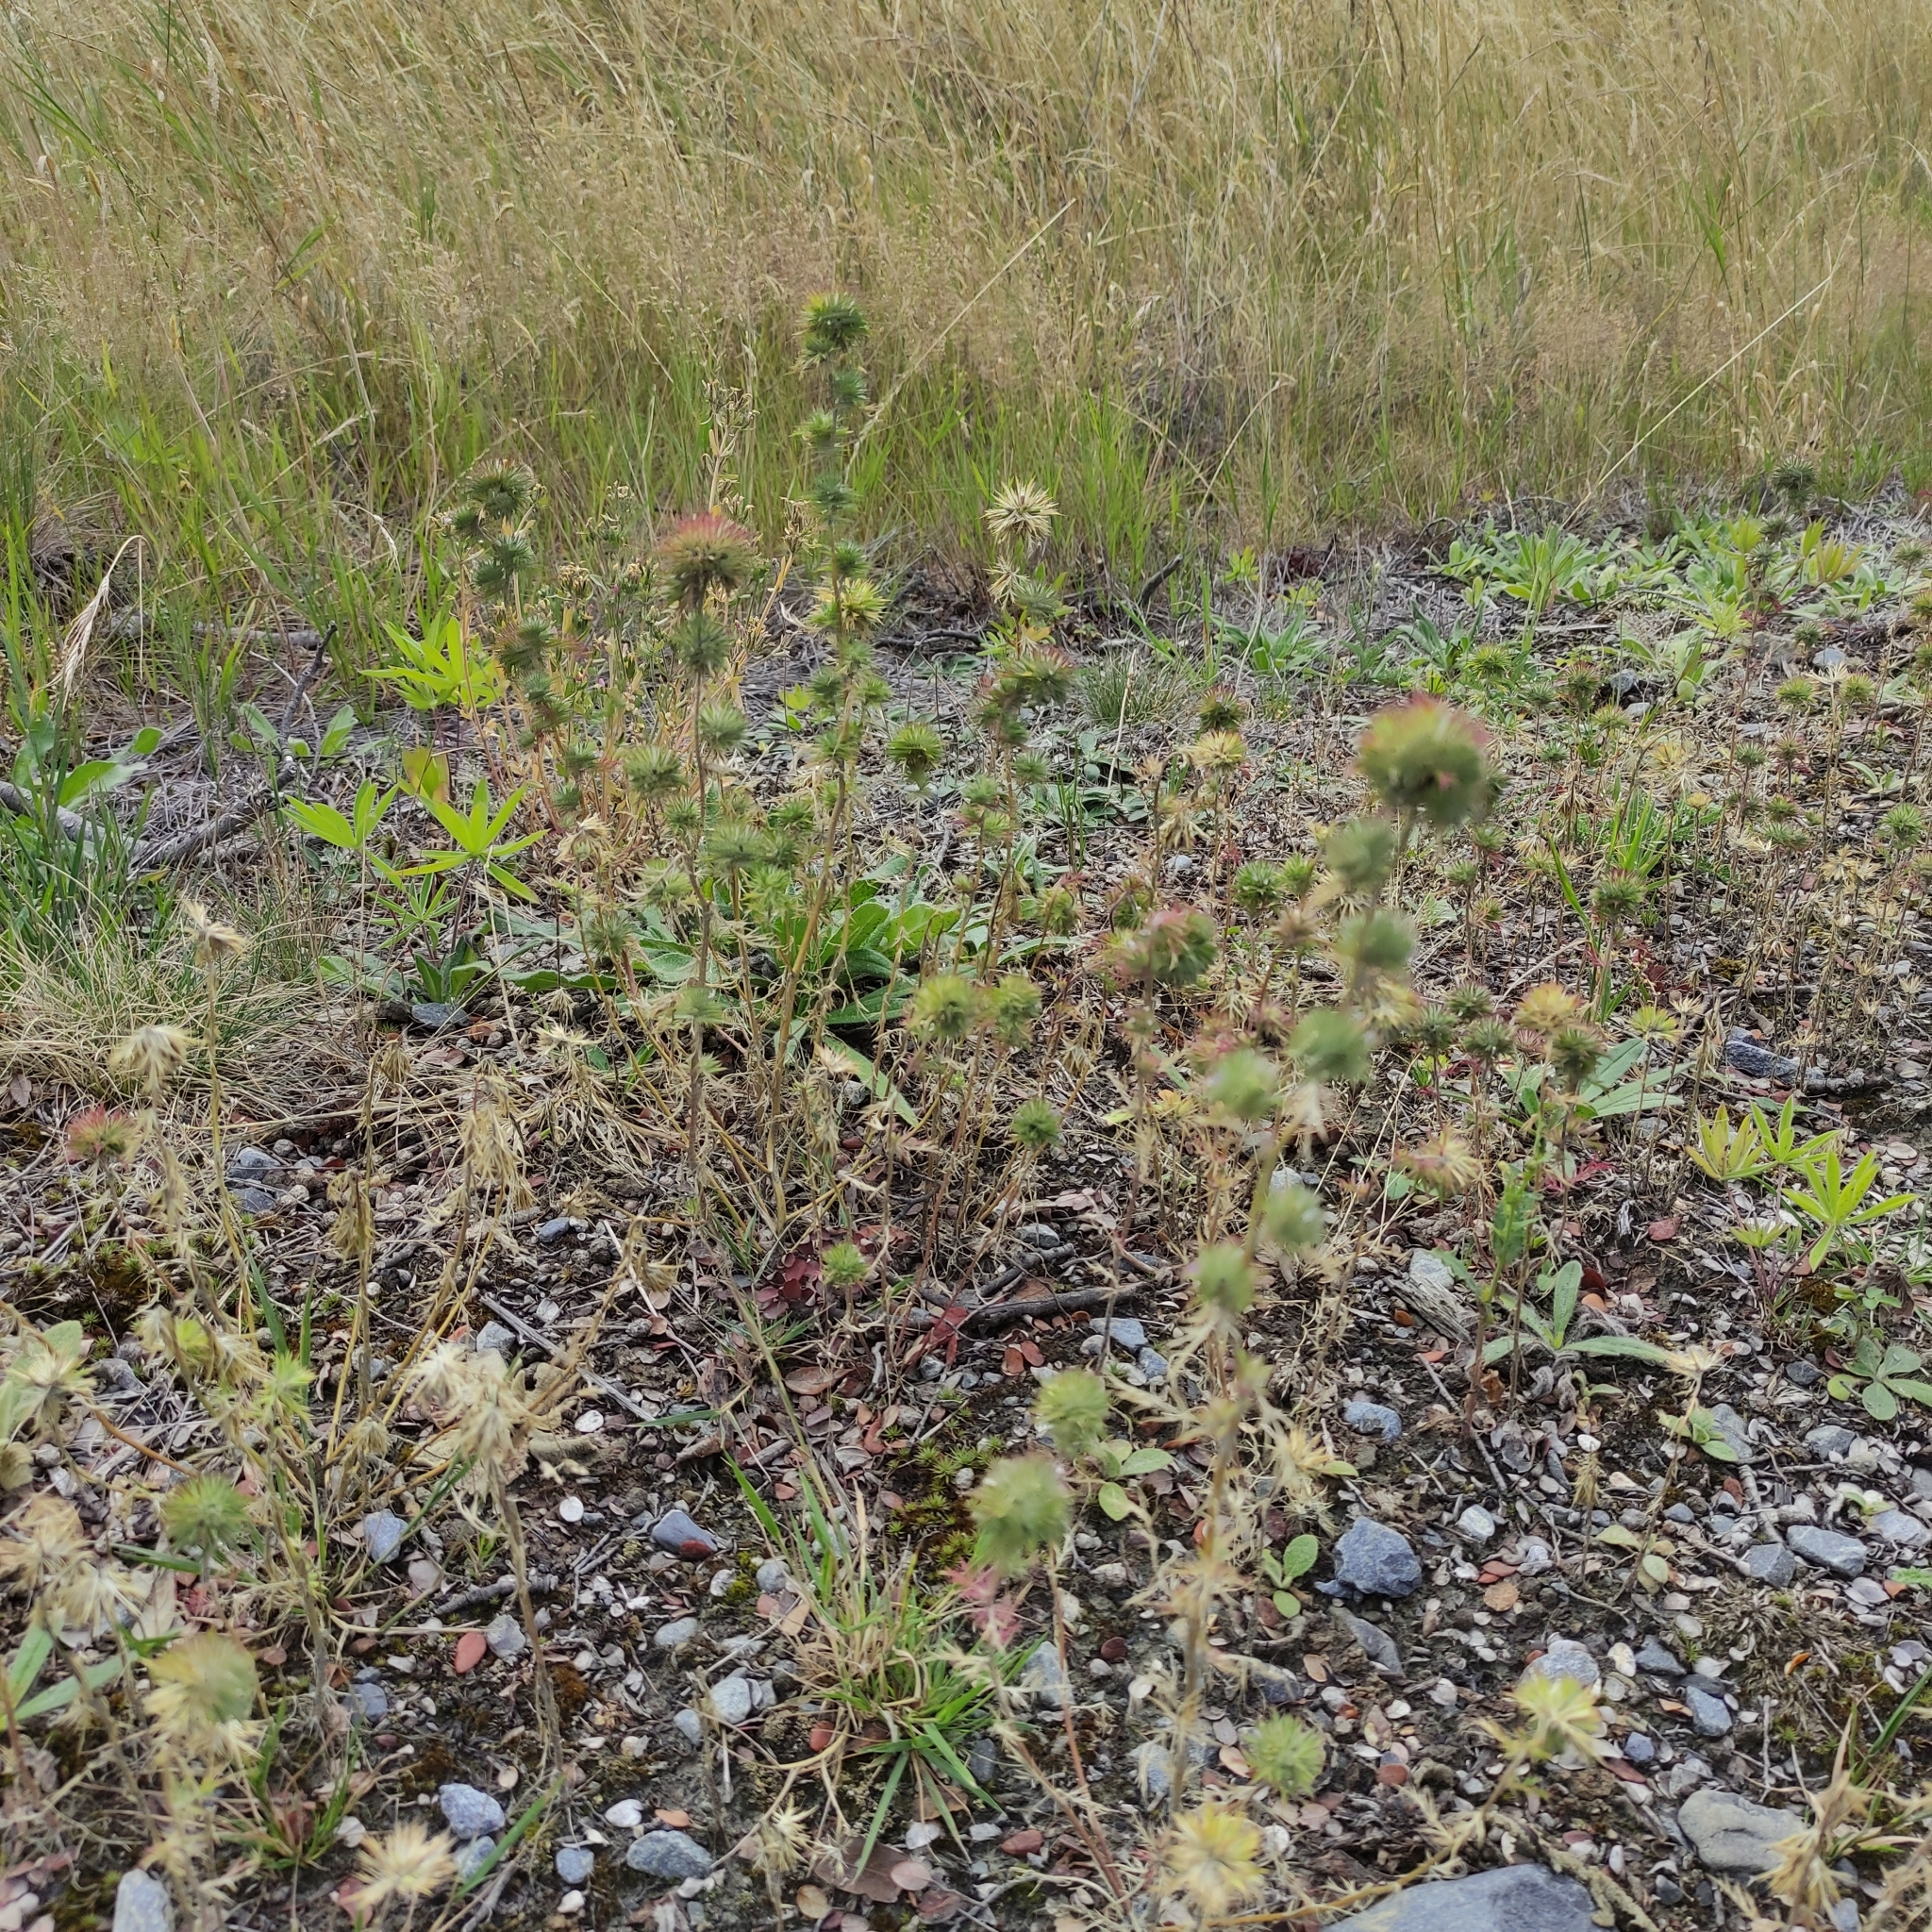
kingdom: Plantae
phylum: Tracheophyta
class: Magnoliopsida
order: Ericales
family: Polemoniaceae
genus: Navarretia
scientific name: Navarretia squarrosa
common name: Skunkweed
